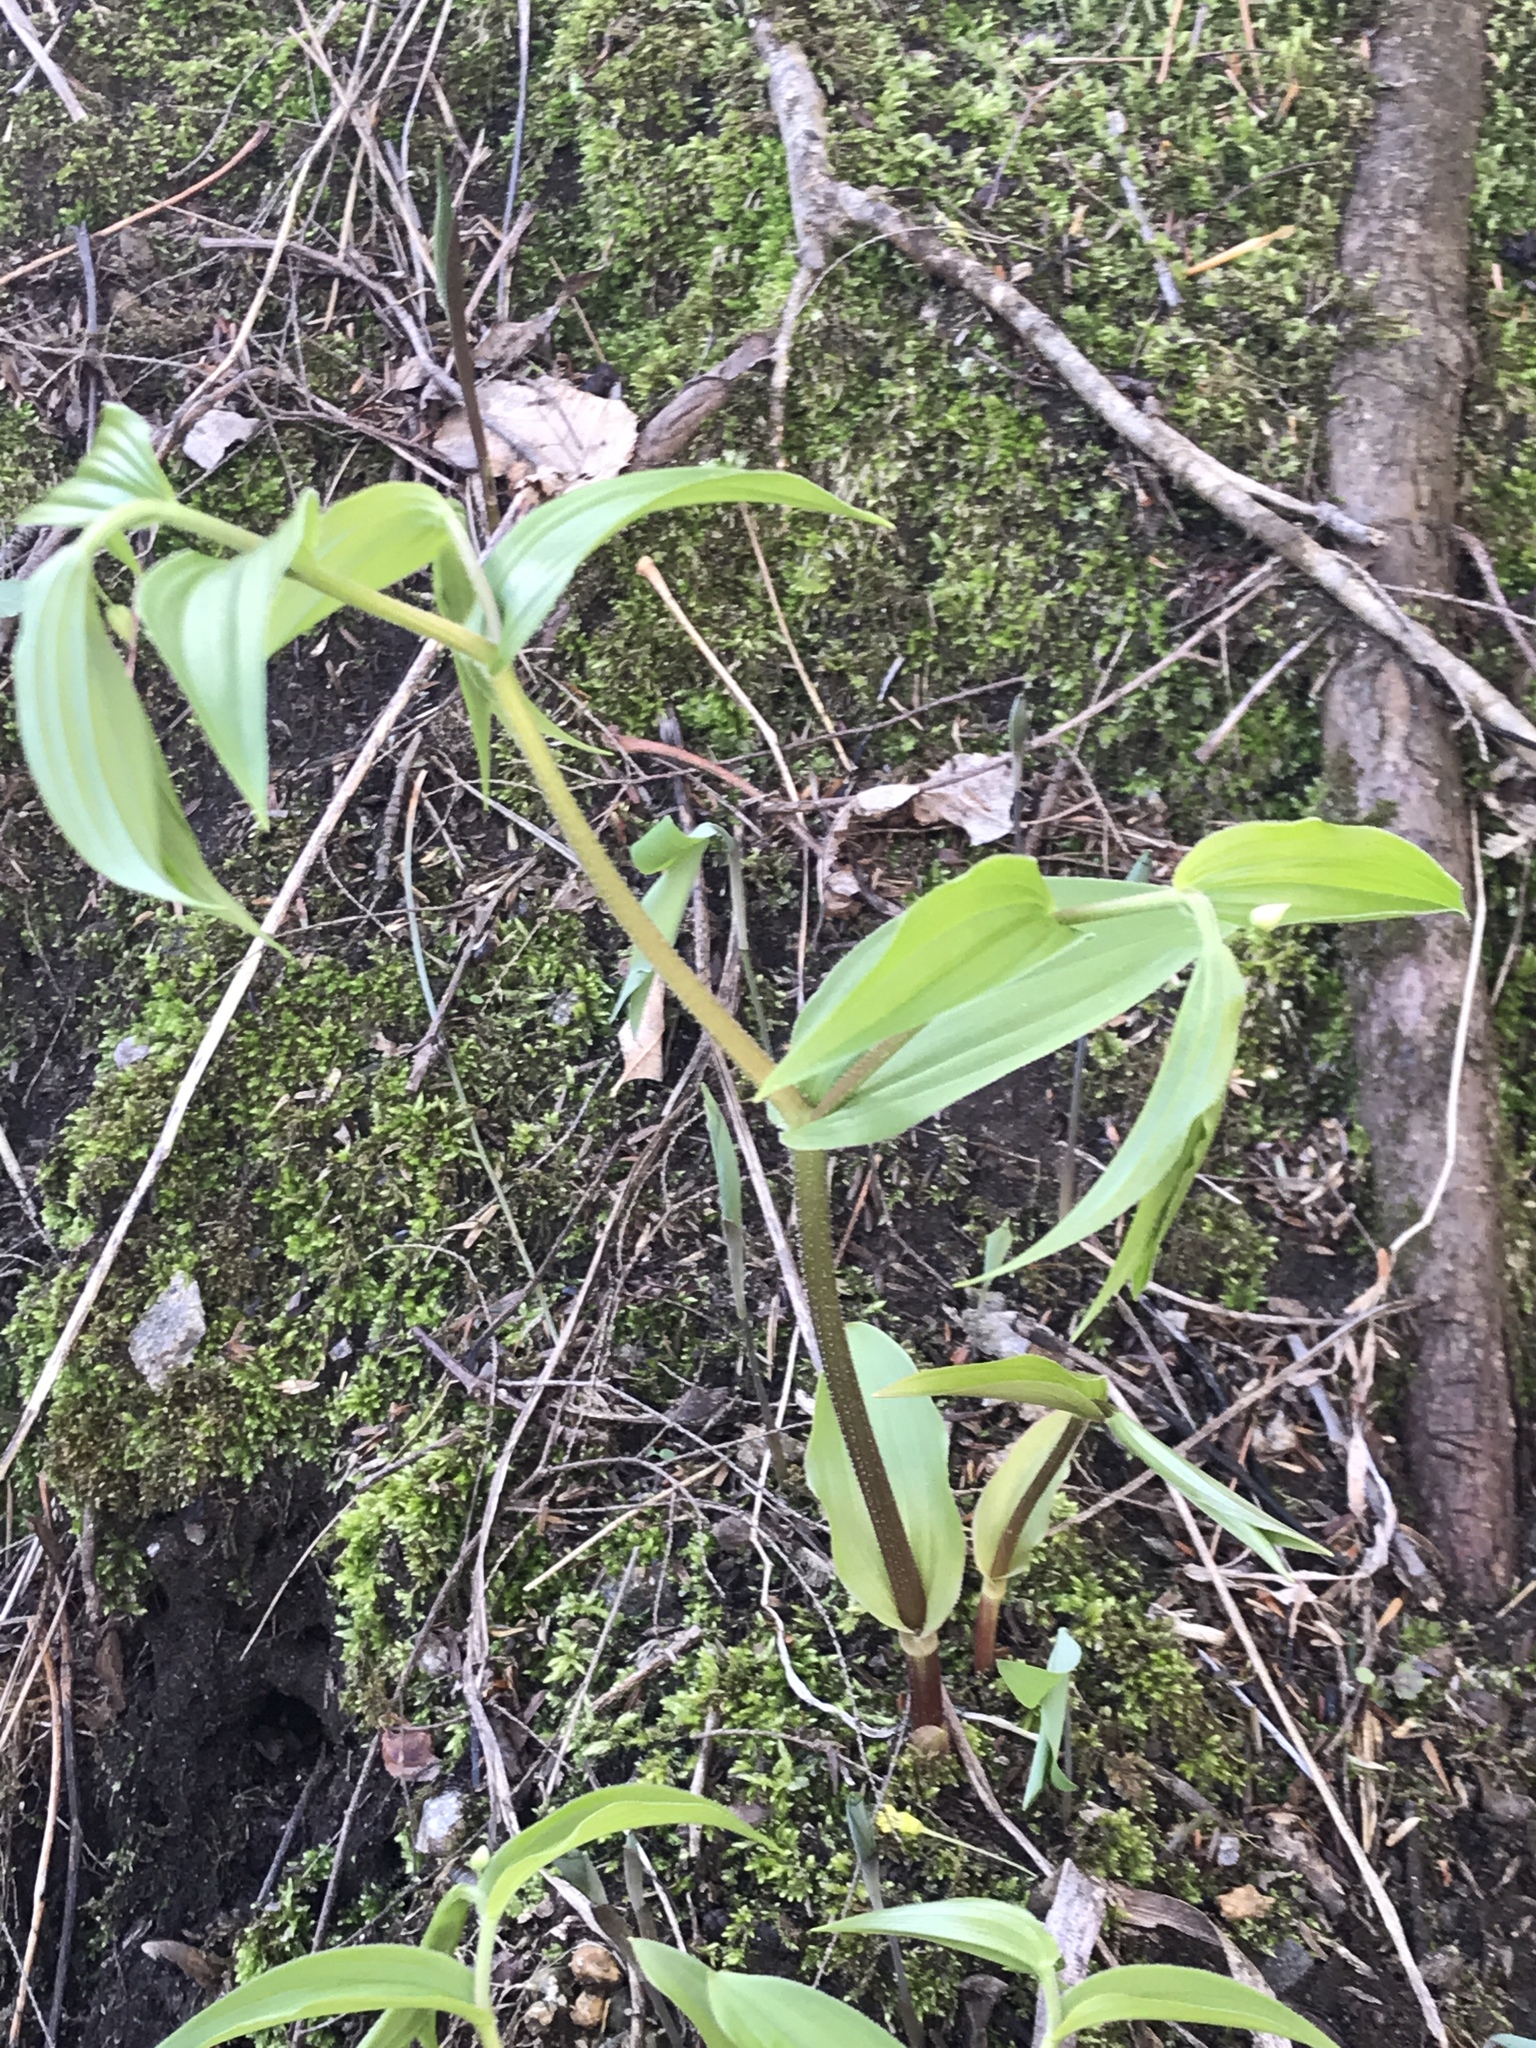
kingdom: Plantae
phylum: Tracheophyta
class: Liliopsida
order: Liliales
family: Liliaceae
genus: Streptopus
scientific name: Streptopus lanceolatus
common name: Rose mandarin
